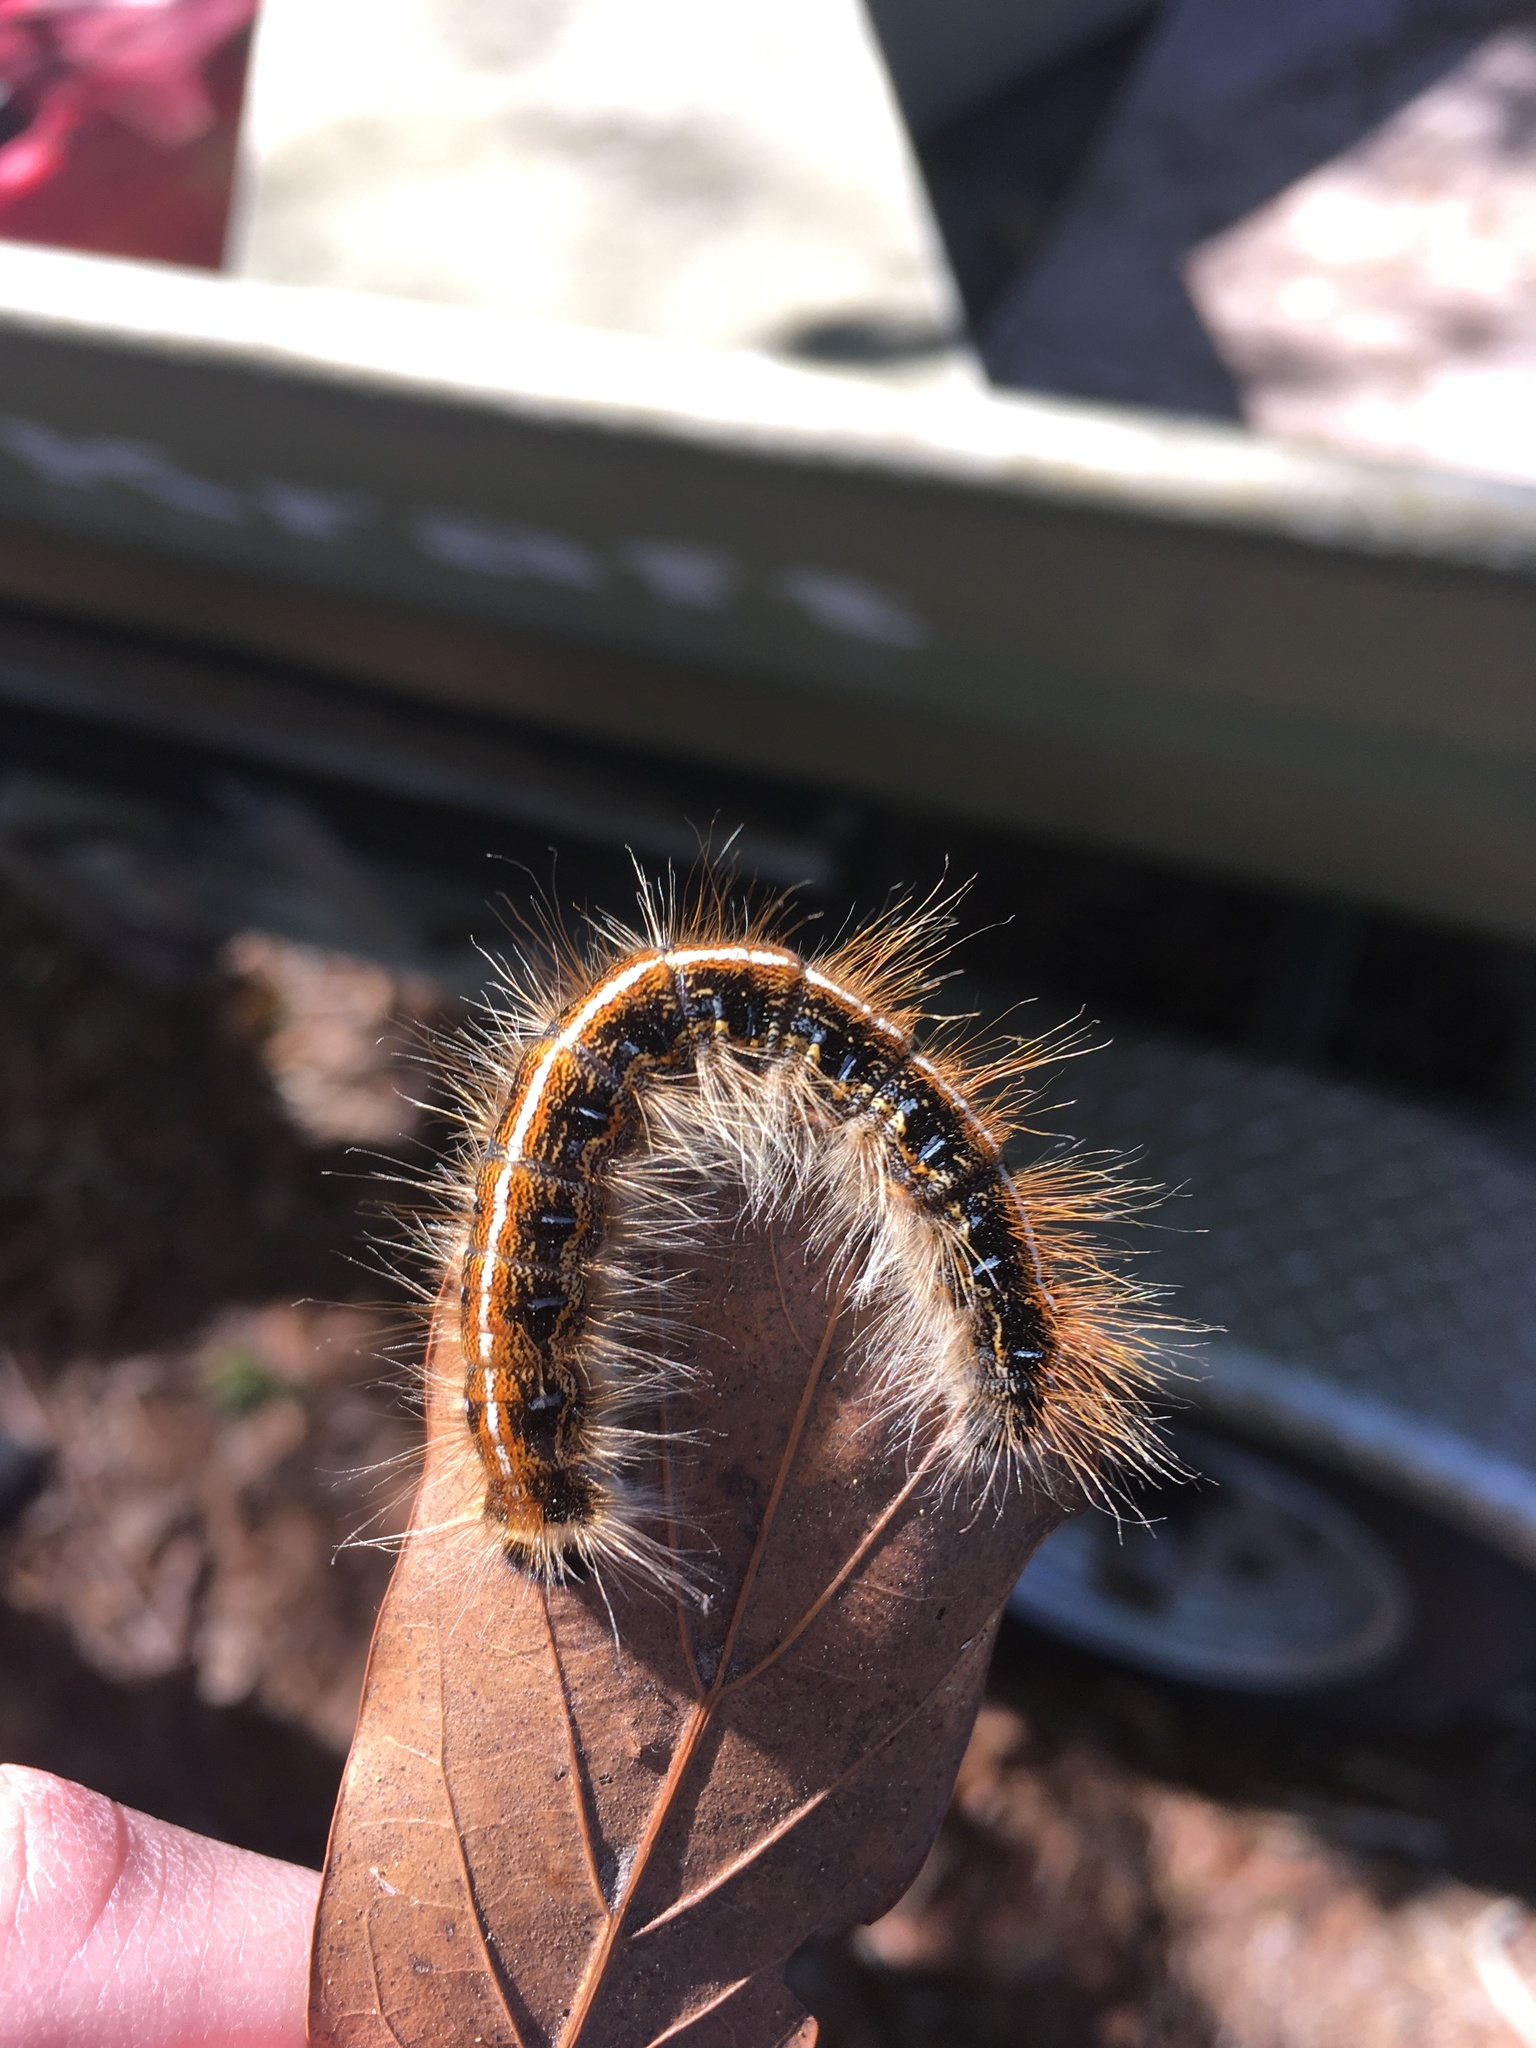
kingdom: Animalia
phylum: Arthropoda
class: Insecta
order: Lepidoptera
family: Lasiocampidae
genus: Malacosoma
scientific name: Malacosoma americana
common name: Eastern tent caterpillar moth
